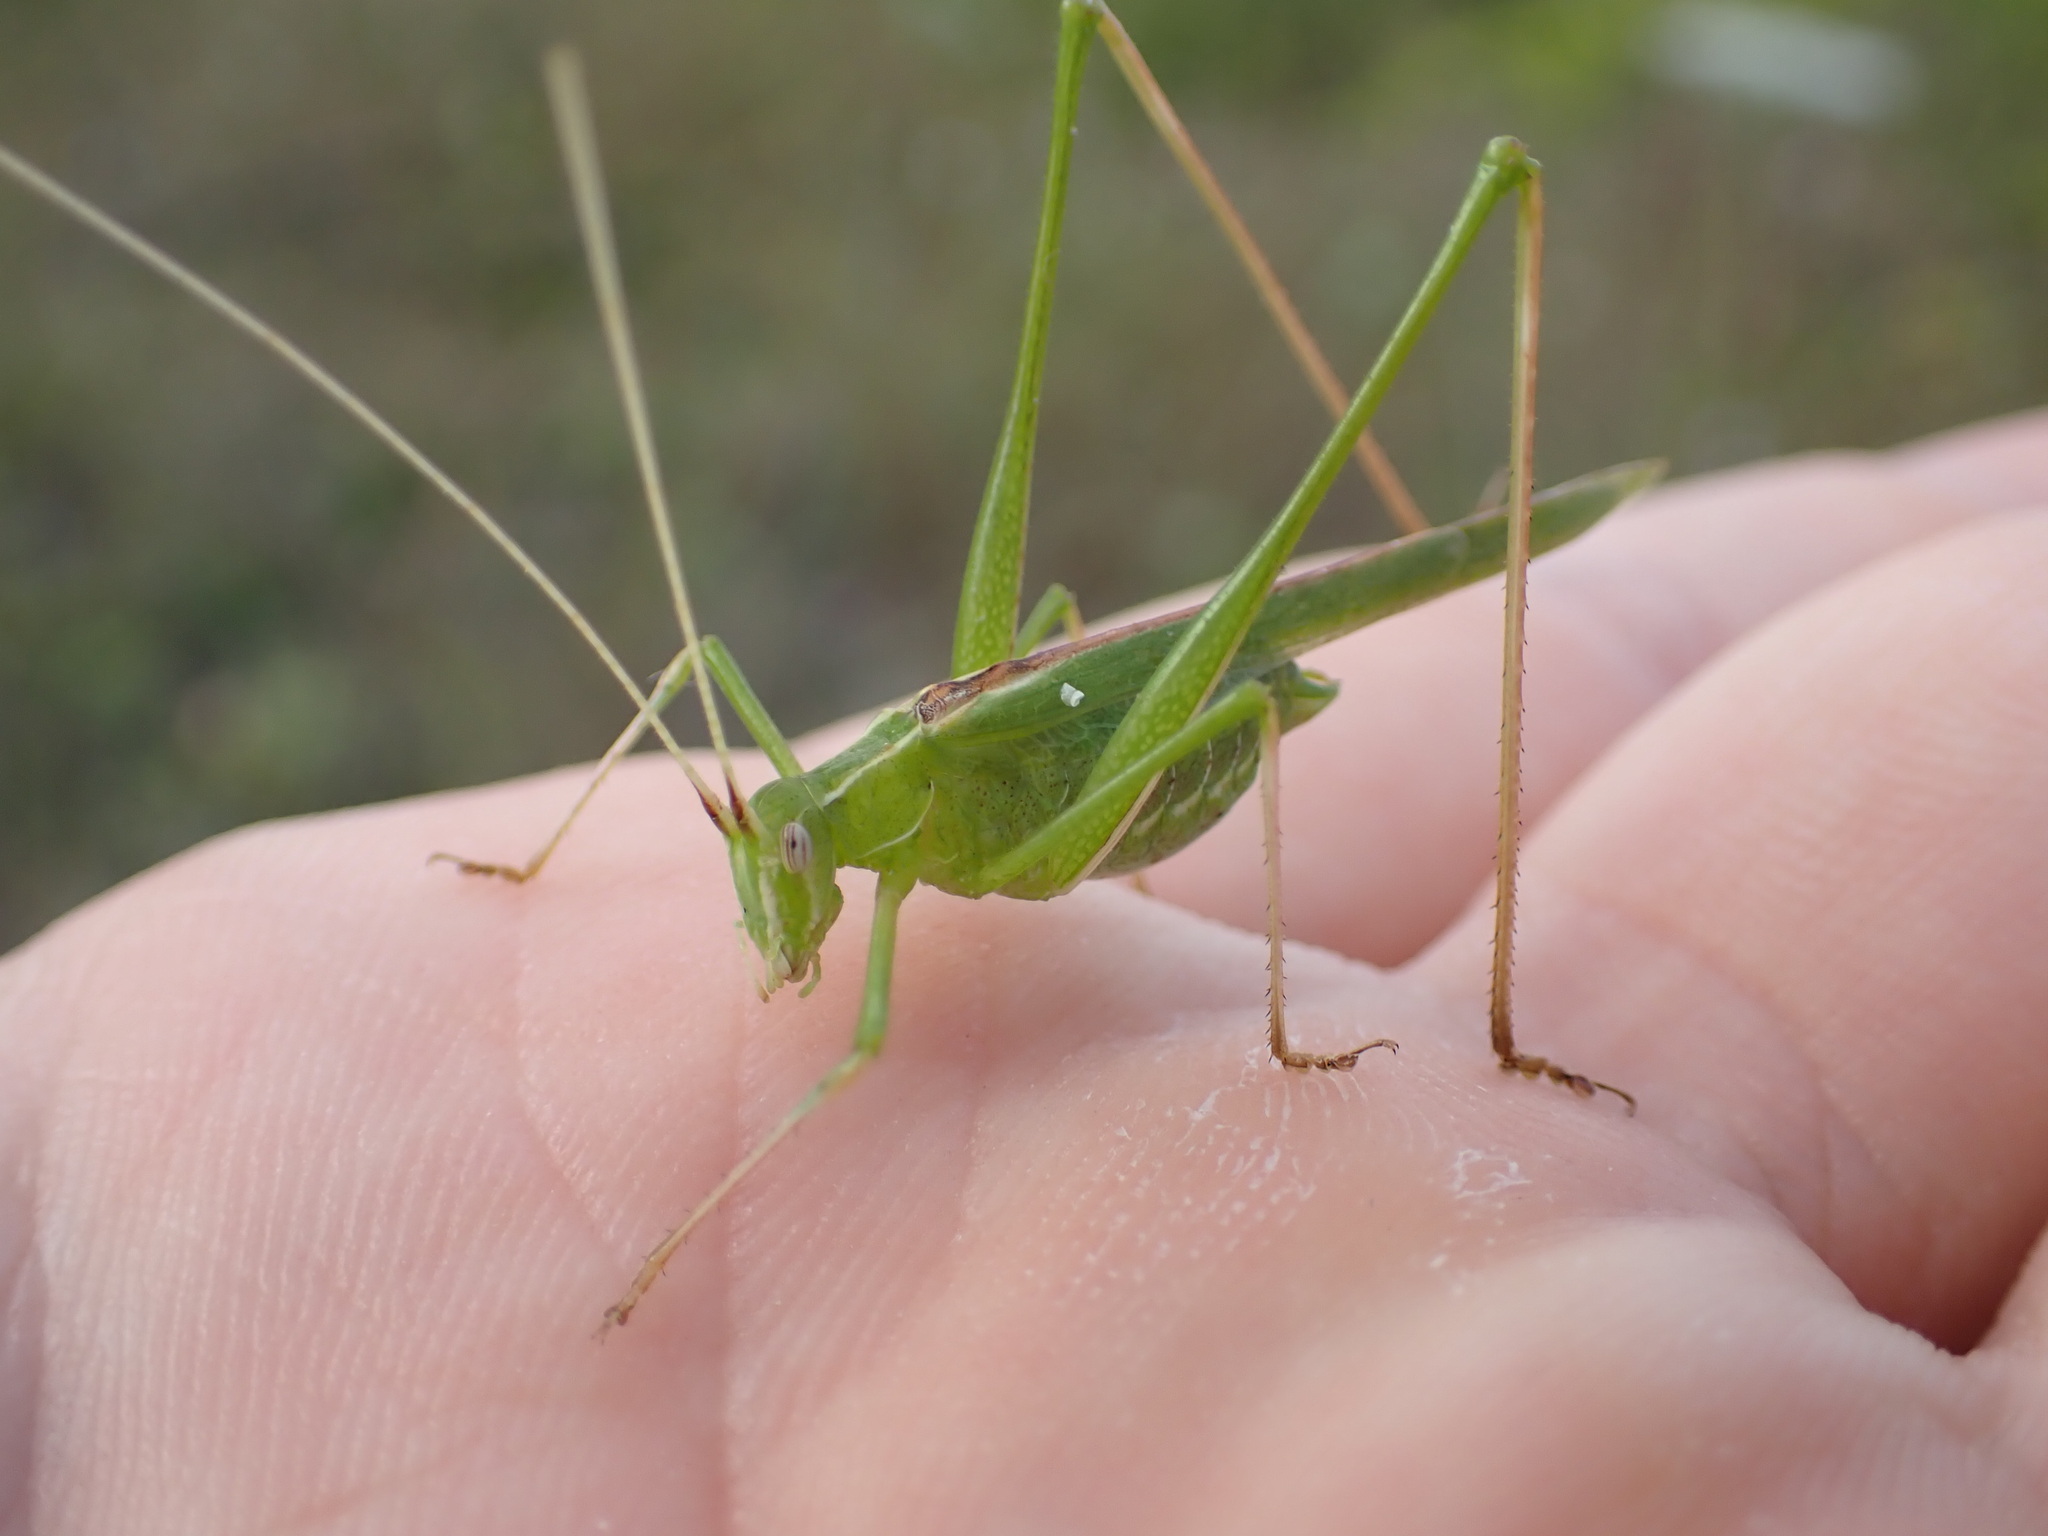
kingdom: Animalia
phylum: Arthropoda
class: Insecta
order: Orthoptera
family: Tettigoniidae
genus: Tylopsis
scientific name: Tylopsis lilifolia
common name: Lily bush-cricket
